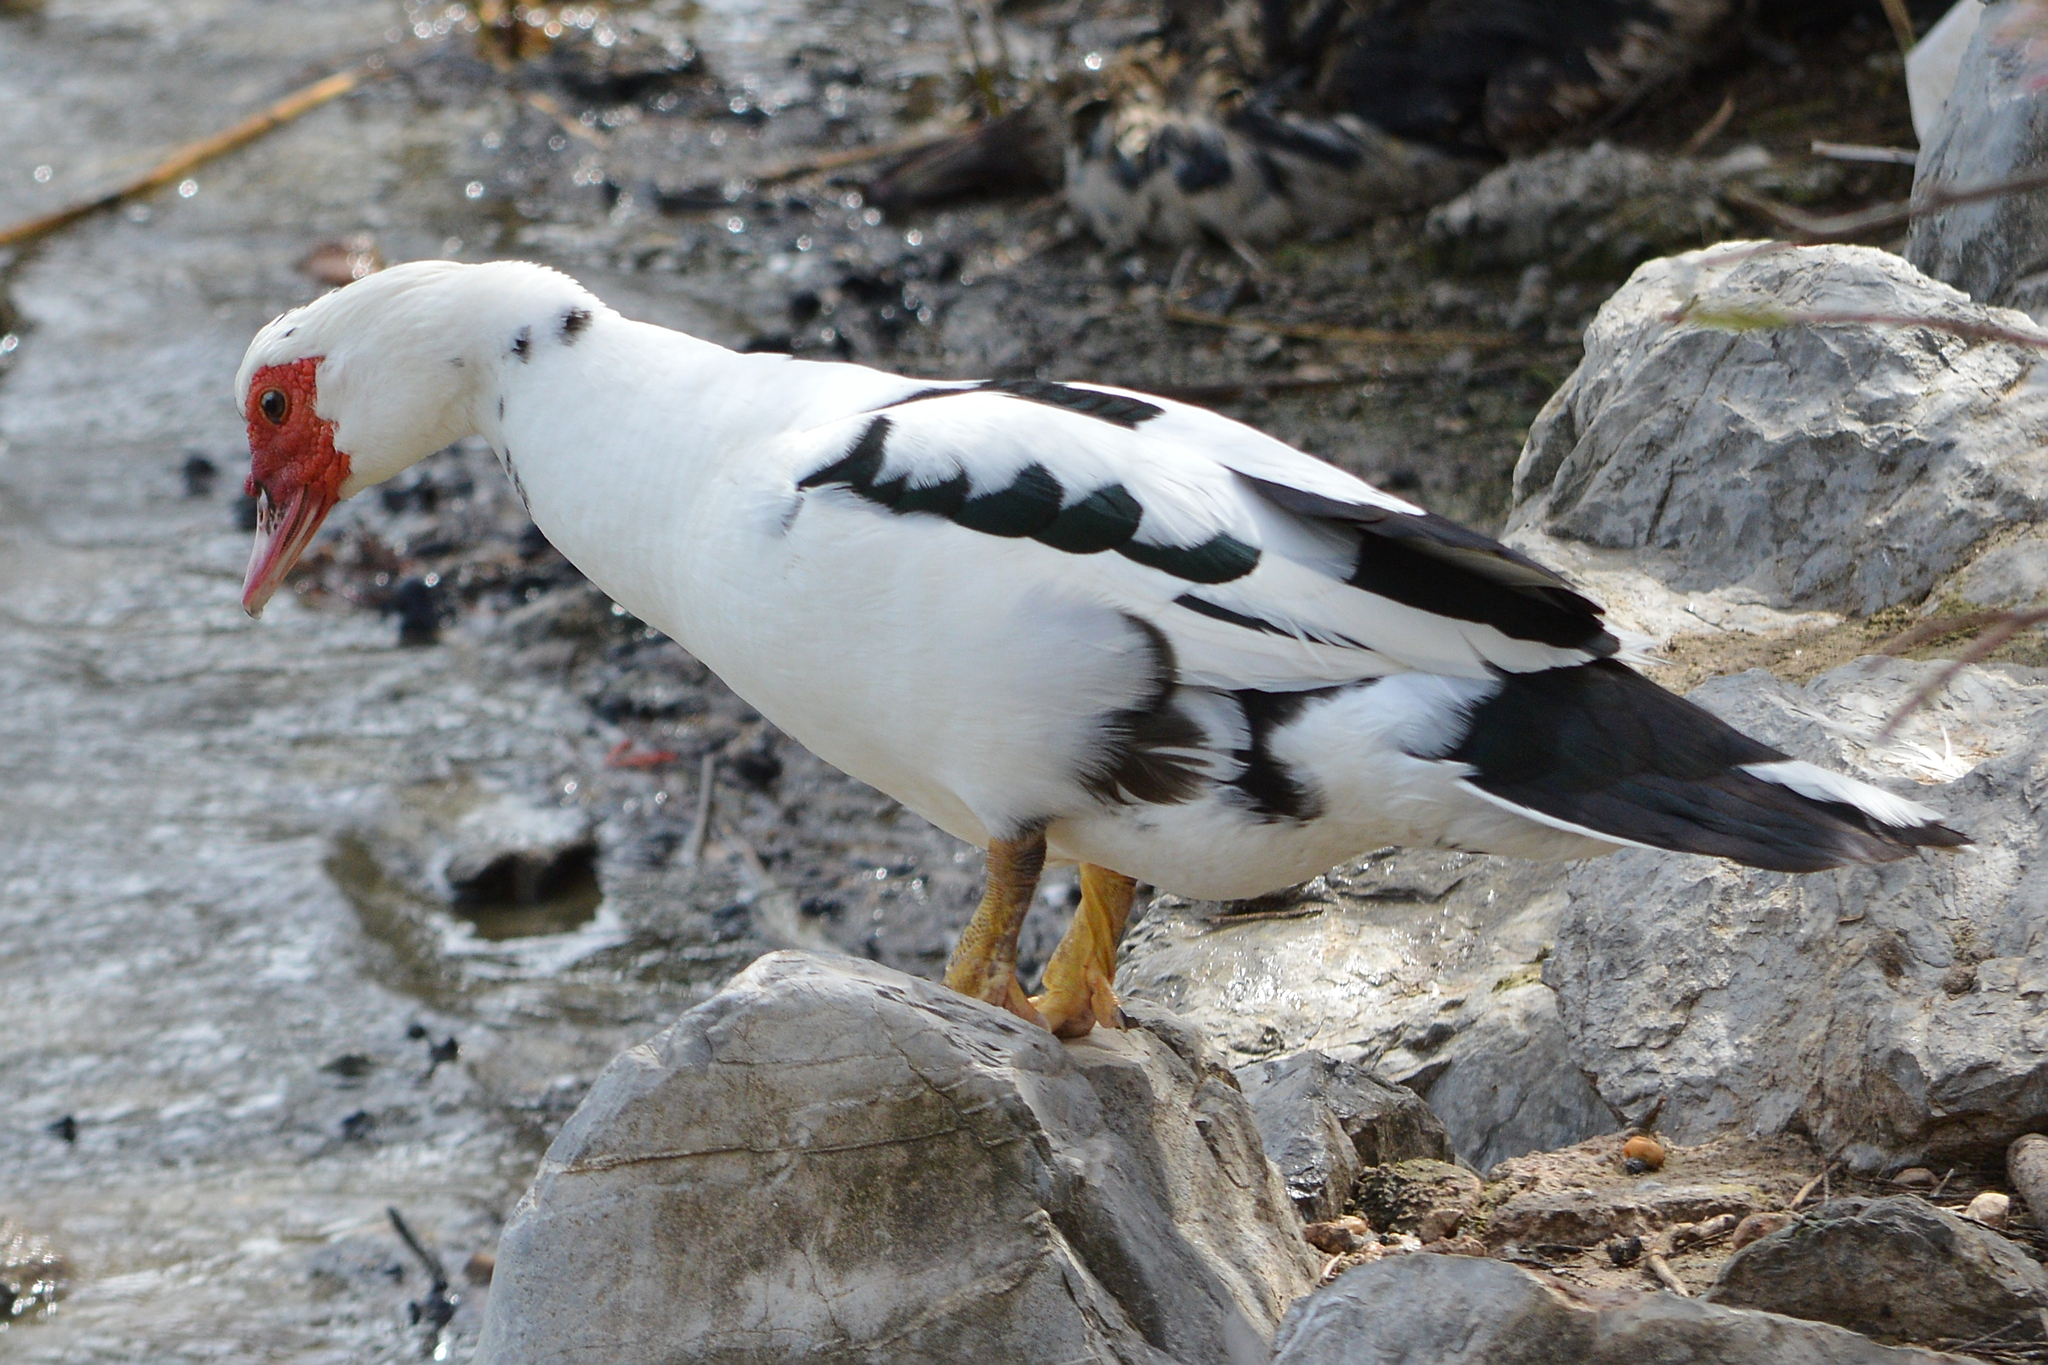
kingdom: Animalia
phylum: Chordata
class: Aves
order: Anseriformes
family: Anatidae
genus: Cairina
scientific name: Cairina moschata
